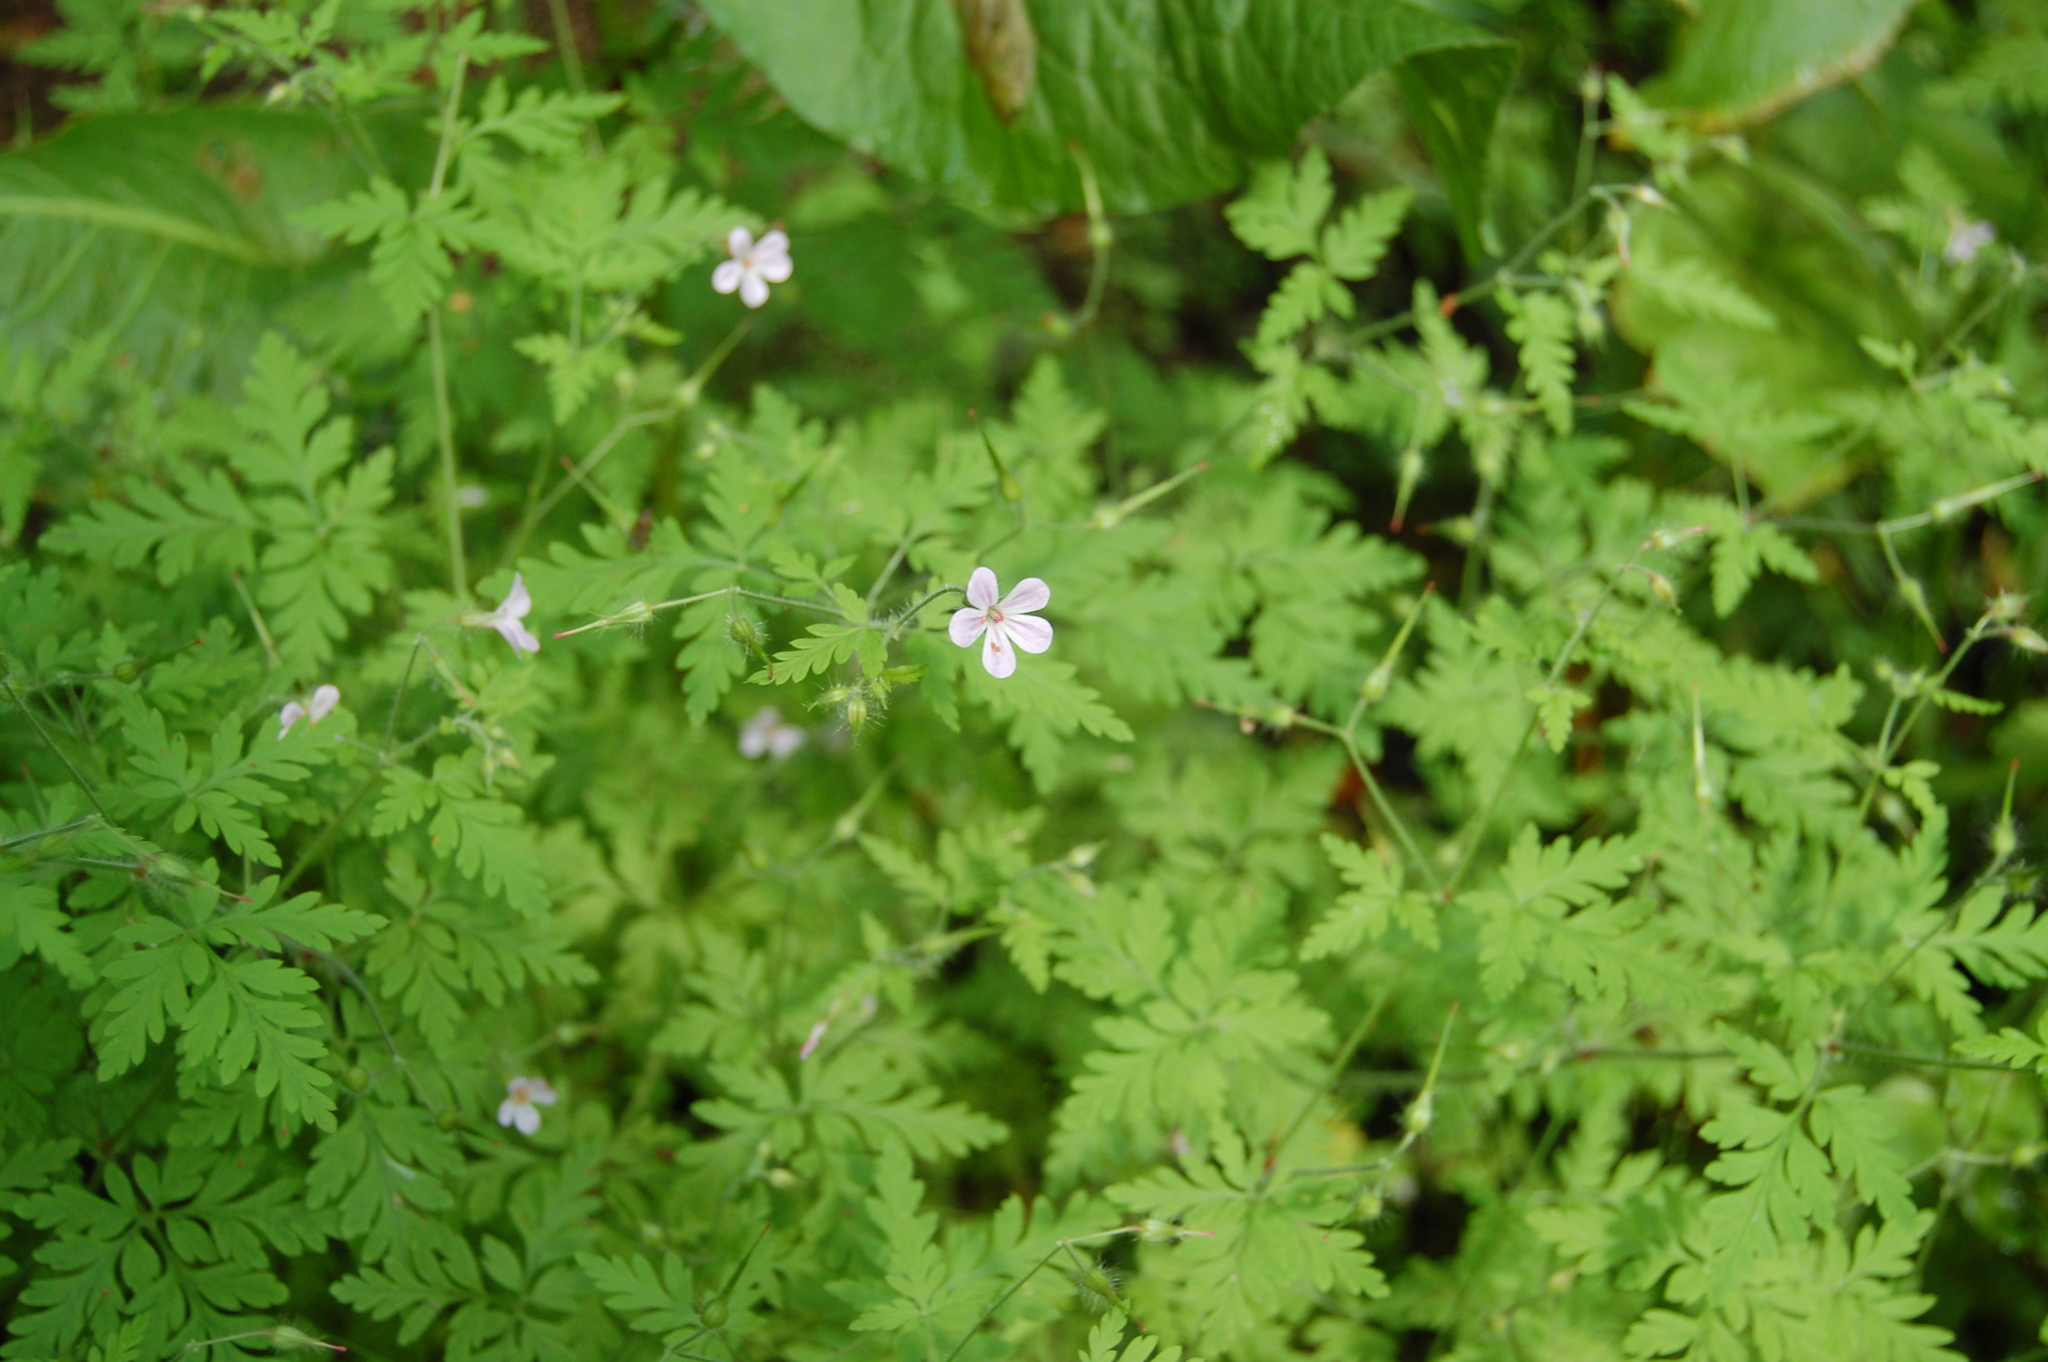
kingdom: Plantae
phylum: Tracheophyta
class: Magnoliopsida
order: Geraniales
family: Geraniaceae
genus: Geranium
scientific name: Geranium robertianum
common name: Herb-robert
